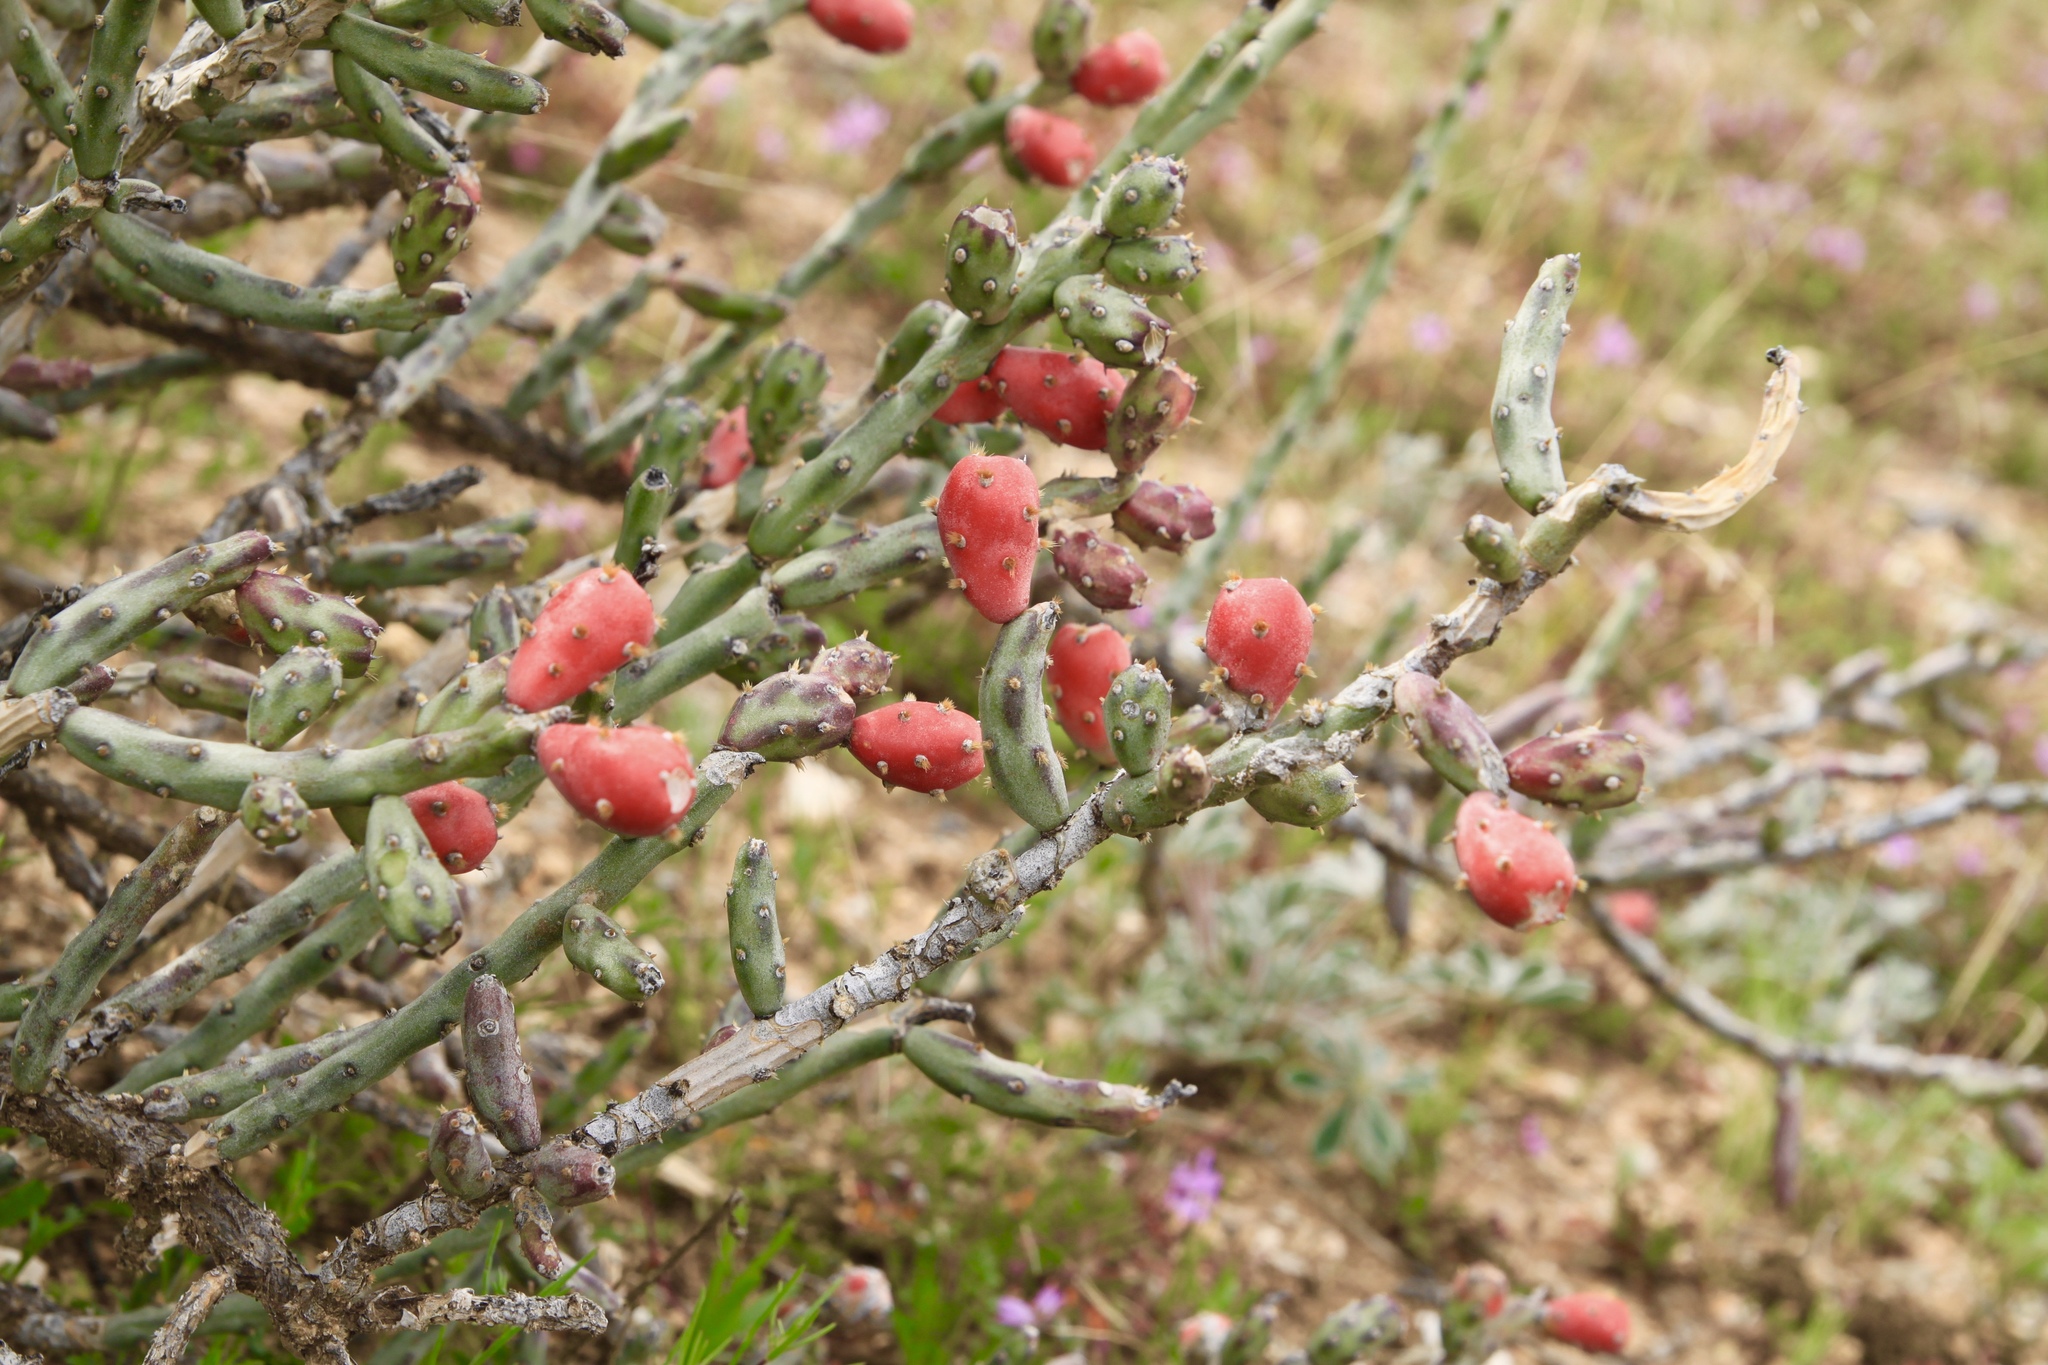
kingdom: Plantae
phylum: Tracheophyta
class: Magnoliopsida
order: Caryophyllales
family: Cactaceae
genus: Cylindropuntia
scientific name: Cylindropuntia leptocaulis
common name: Christmas cactus
